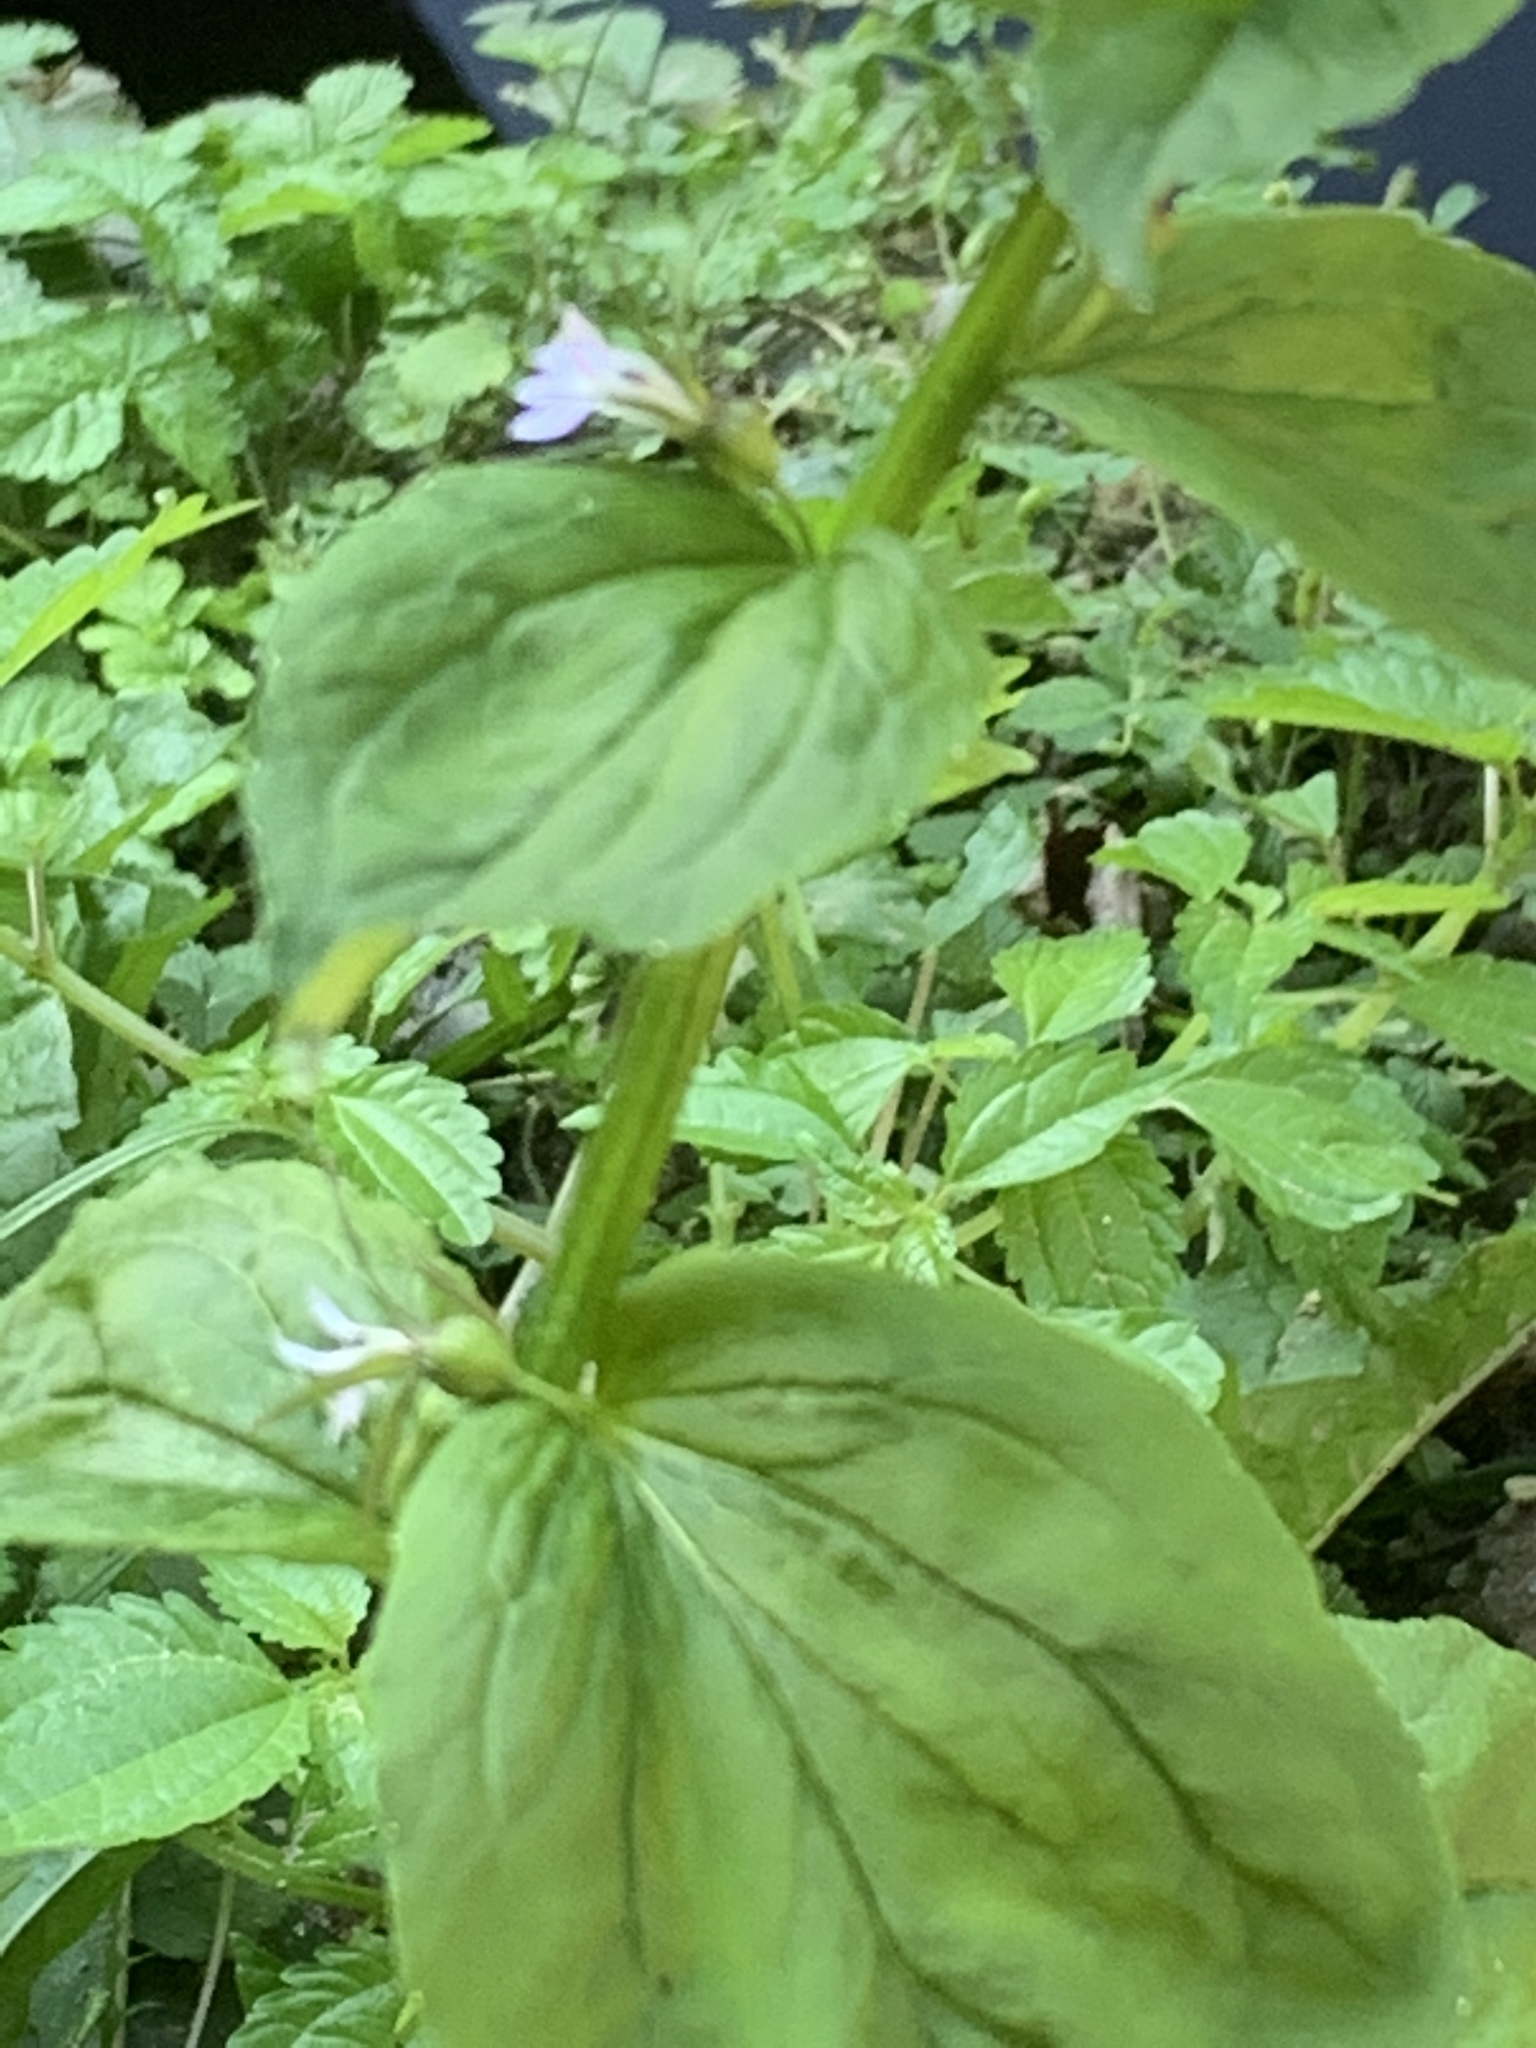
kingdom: Plantae
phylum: Tracheophyta
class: Magnoliopsida
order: Asterales
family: Campanulaceae
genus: Lobelia
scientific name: Lobelia inflata
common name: Indian tobacco
